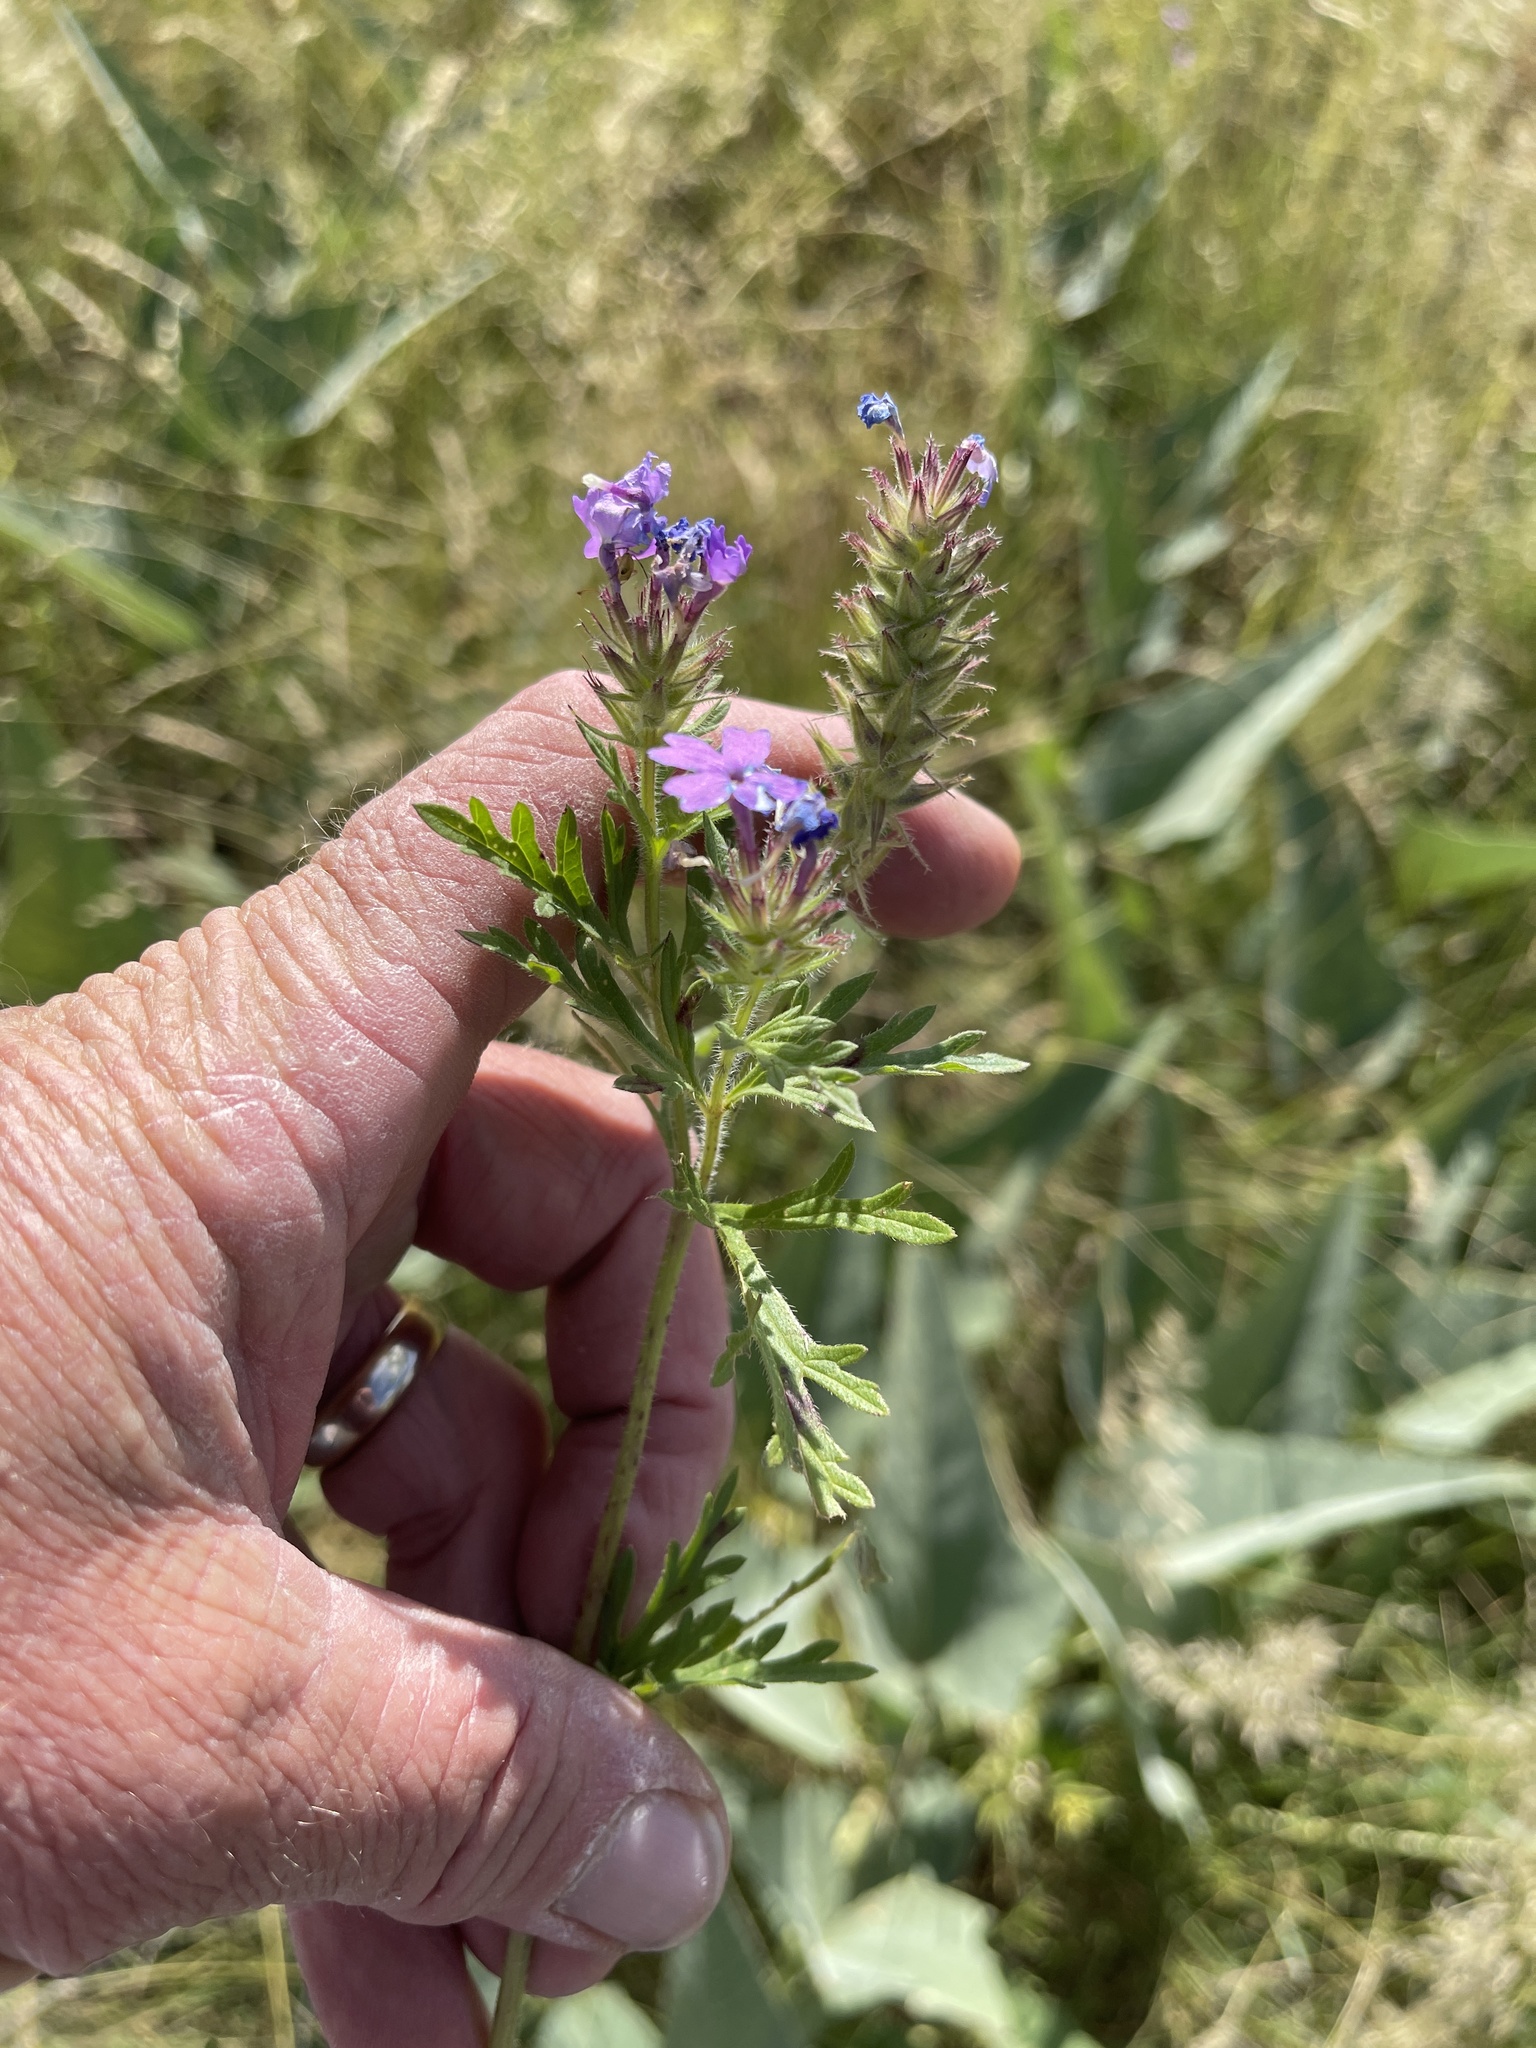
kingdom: Plantae
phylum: Tracheophyta
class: Magnoliopsida
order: Lamiales
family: Verbenaceae
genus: Verbena
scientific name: Verbena bracteata
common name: Bracted vervain
